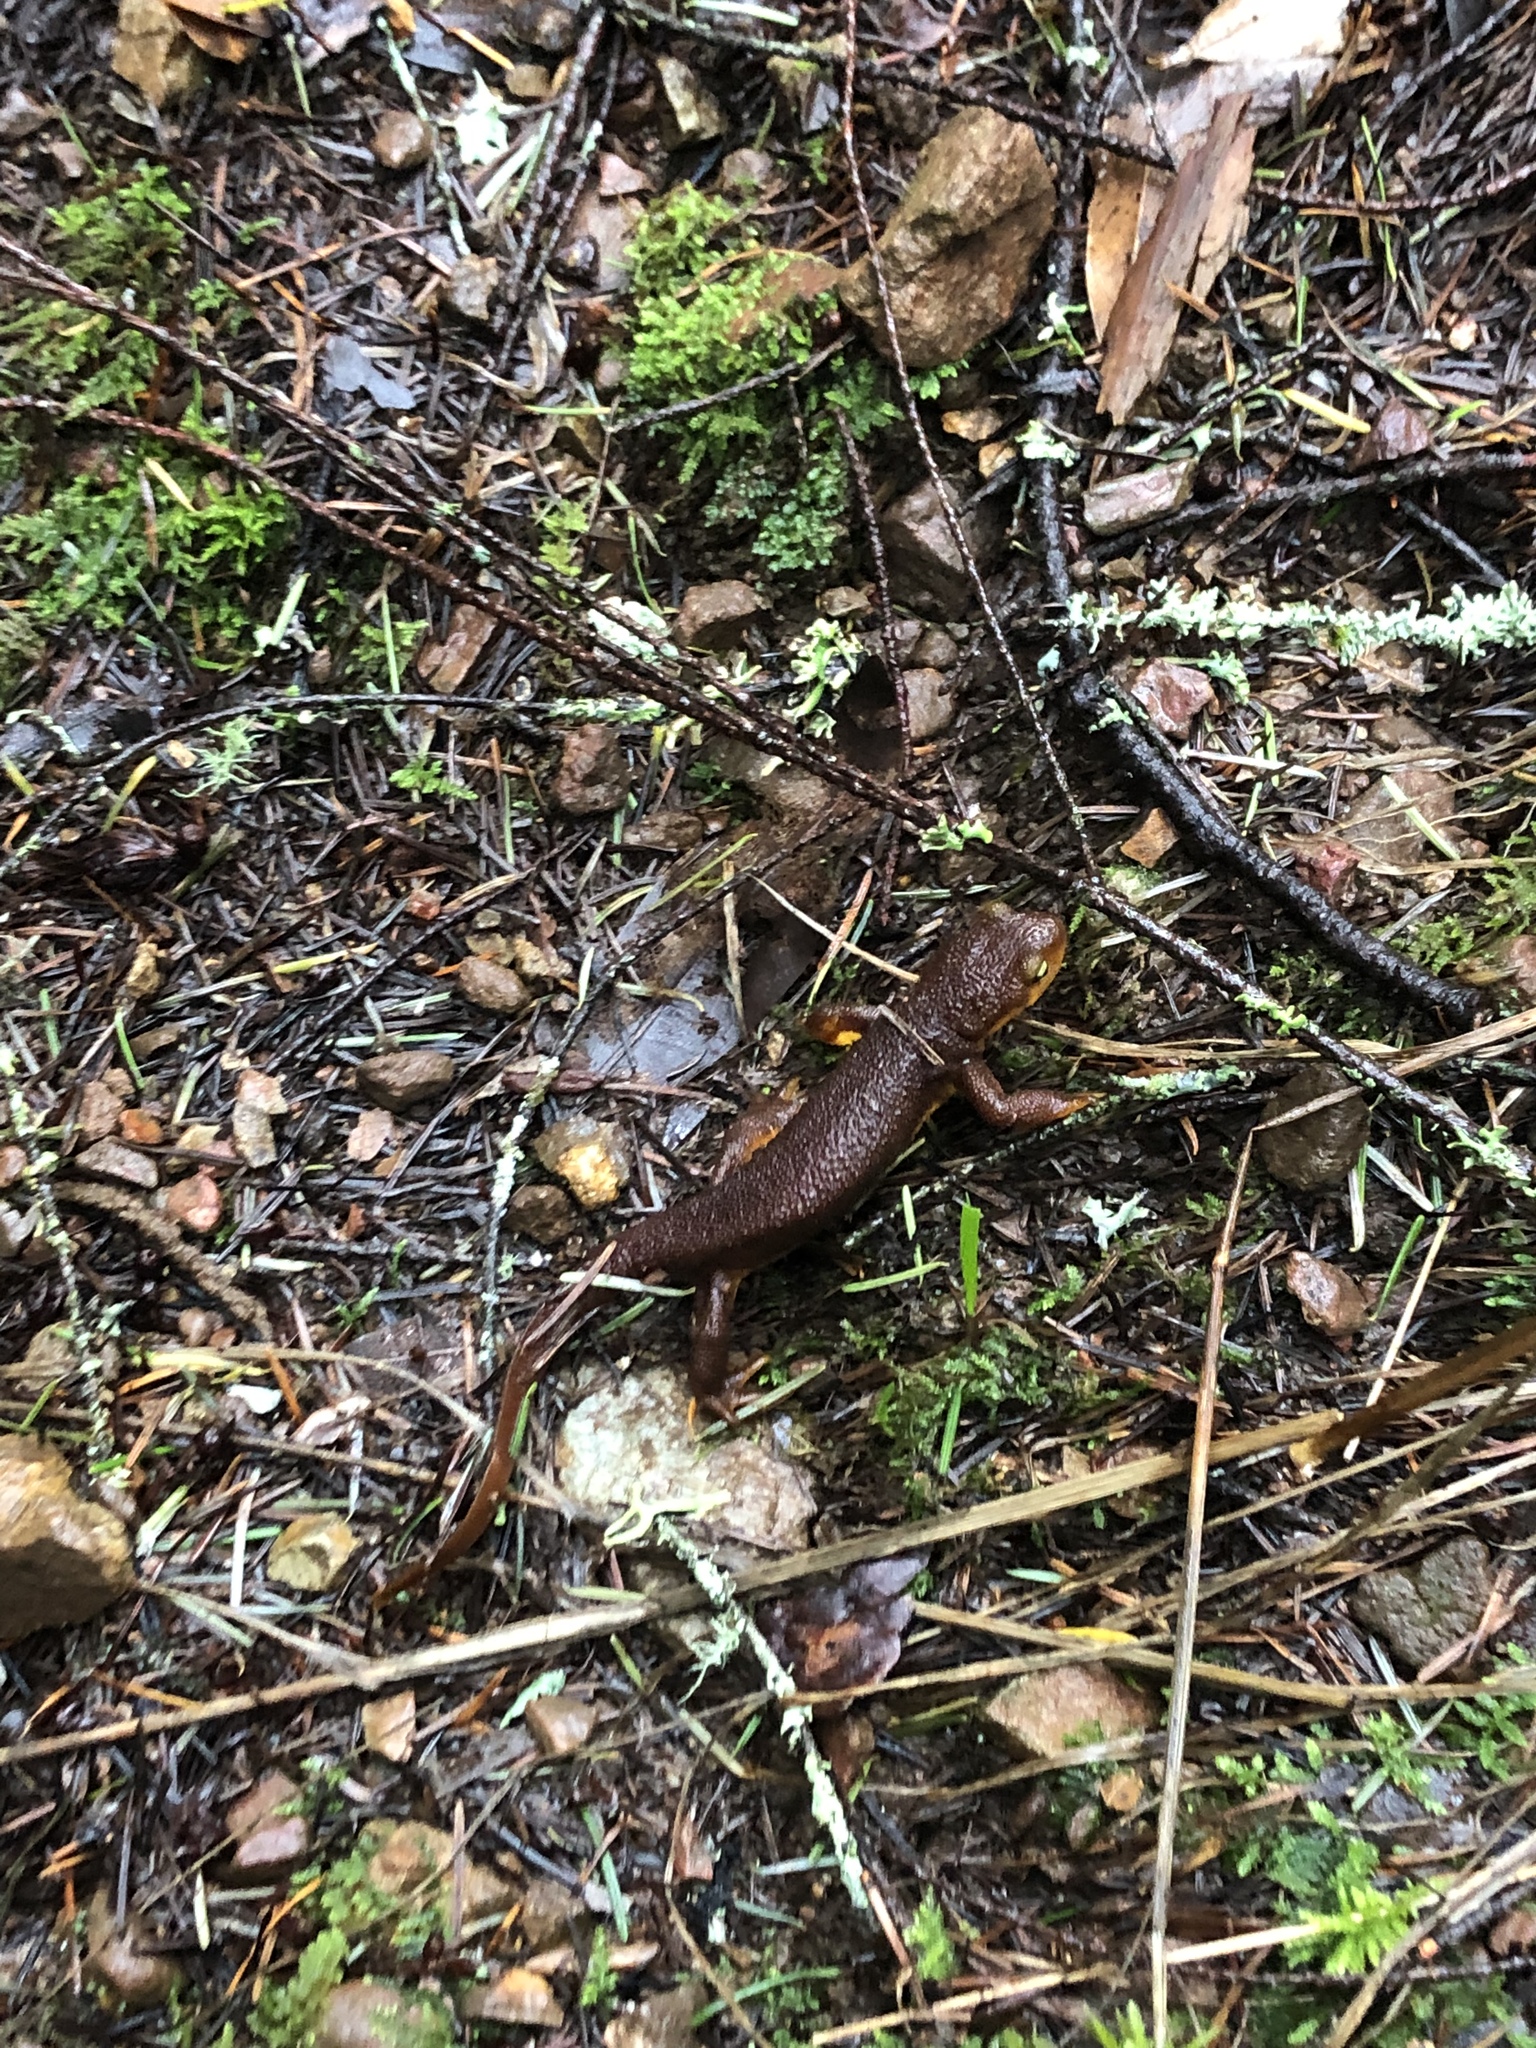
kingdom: Animalia
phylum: Chordata
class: Amphibia
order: Caudata
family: Salamandridae
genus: Taricha
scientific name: Taricha torosa
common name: California newt
